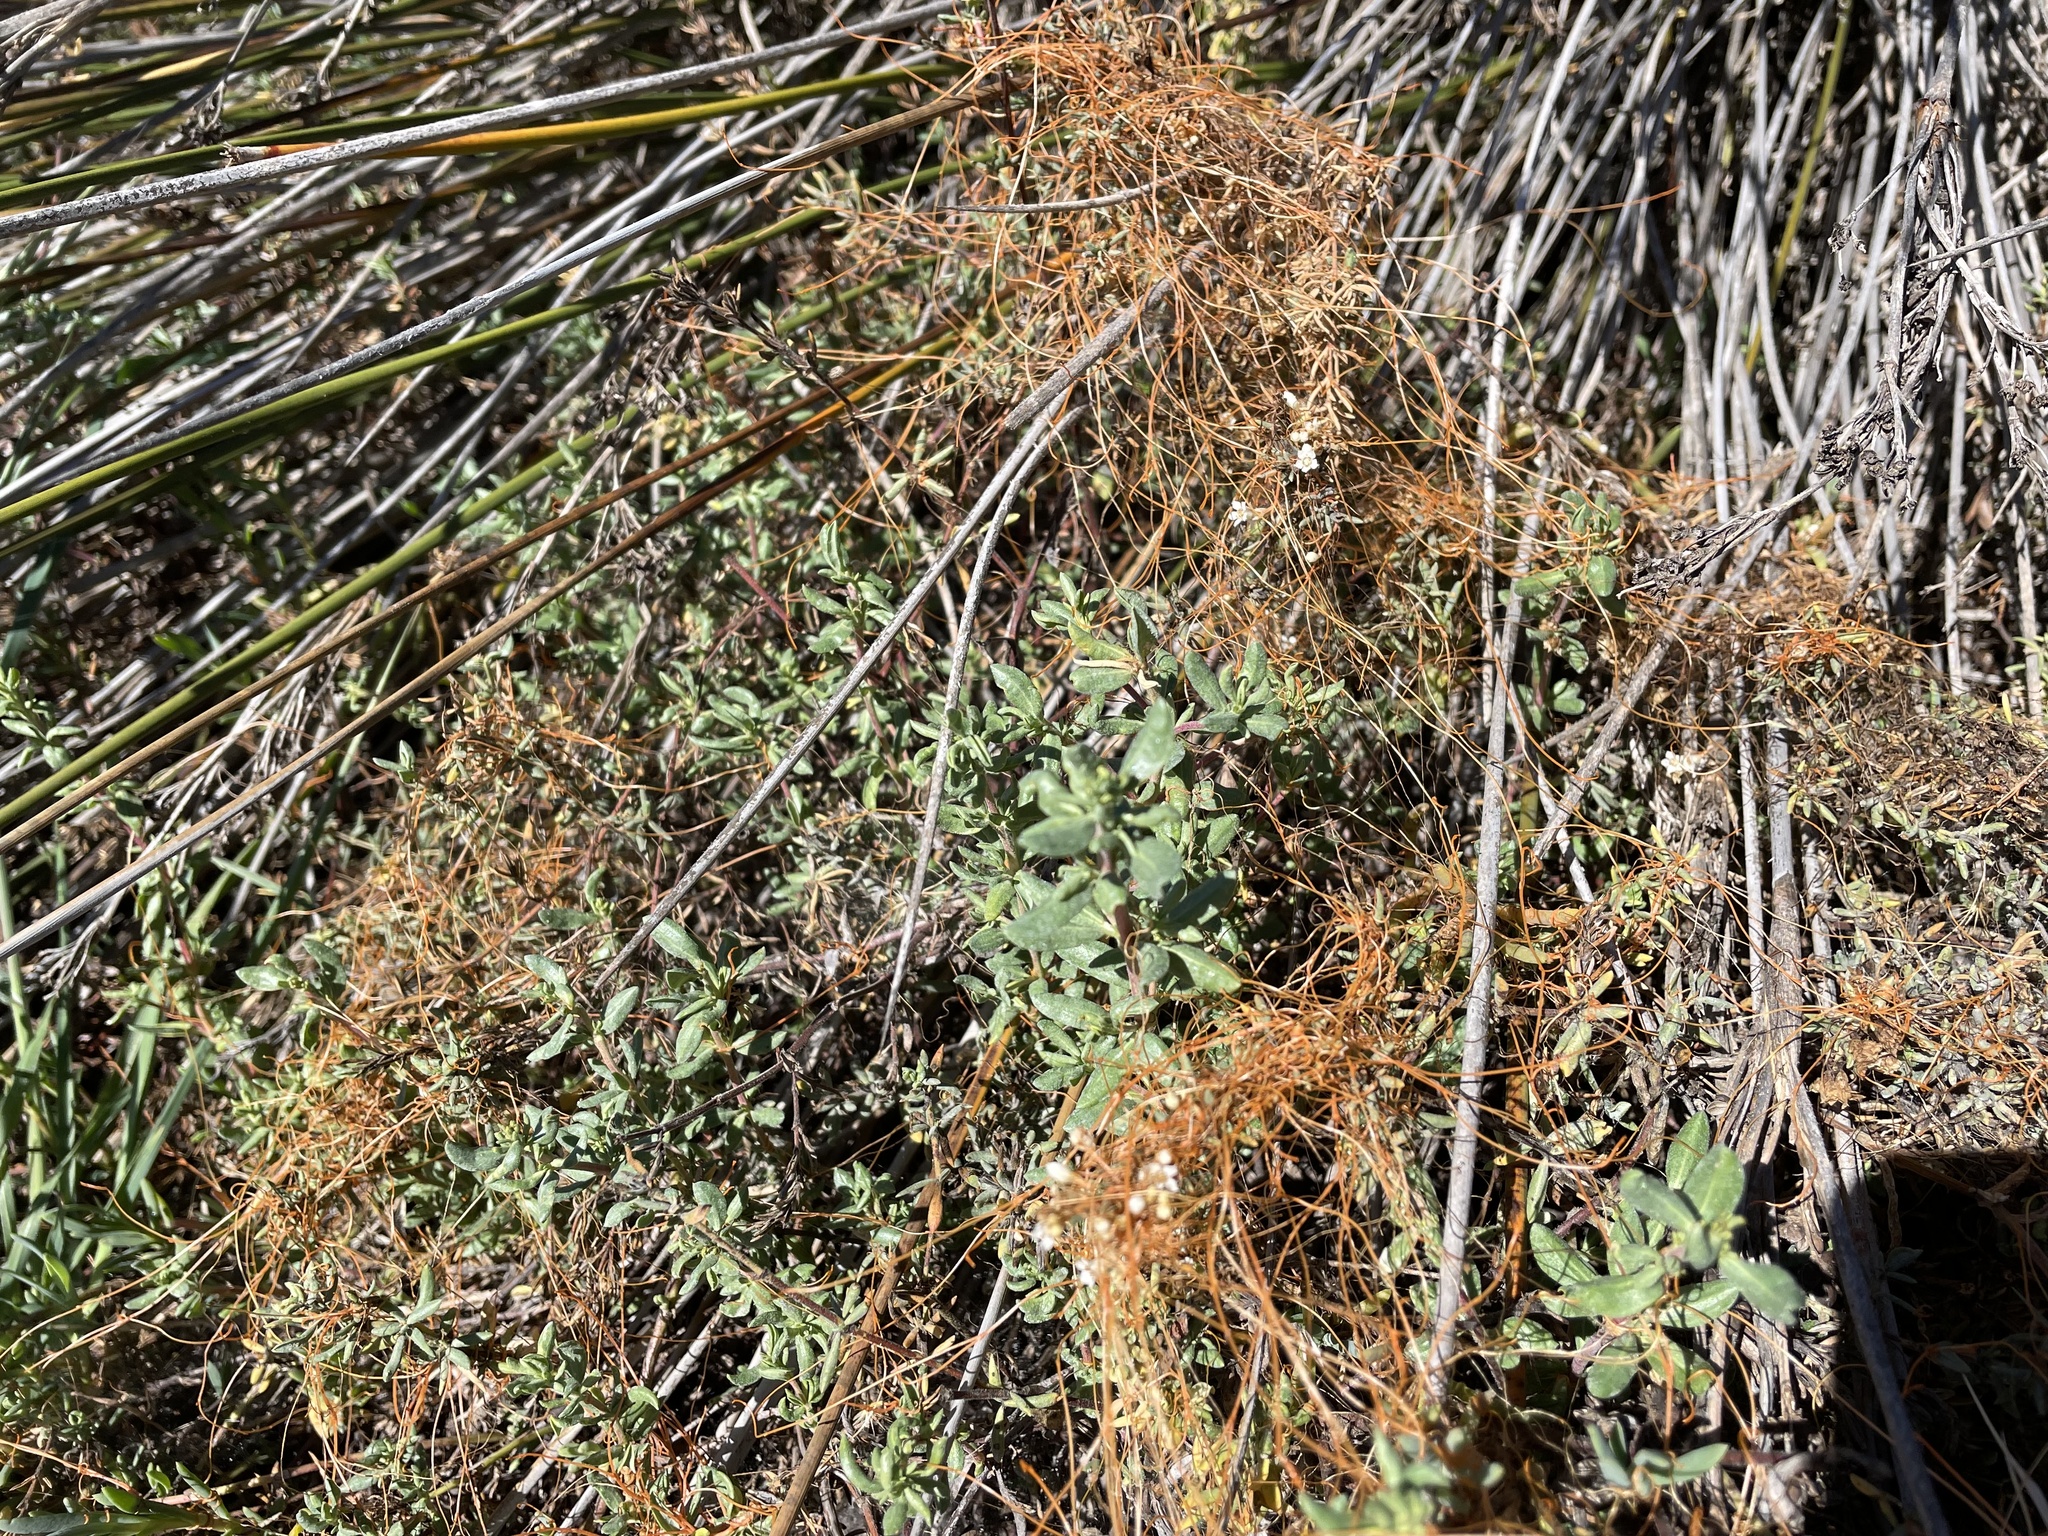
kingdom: Plantae
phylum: Tracheophyta
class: Magnoliopsida
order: Caryophyllales
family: Frankeniaceae
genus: Frankenia
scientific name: Frankenia salina
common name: Alkali seaheath
